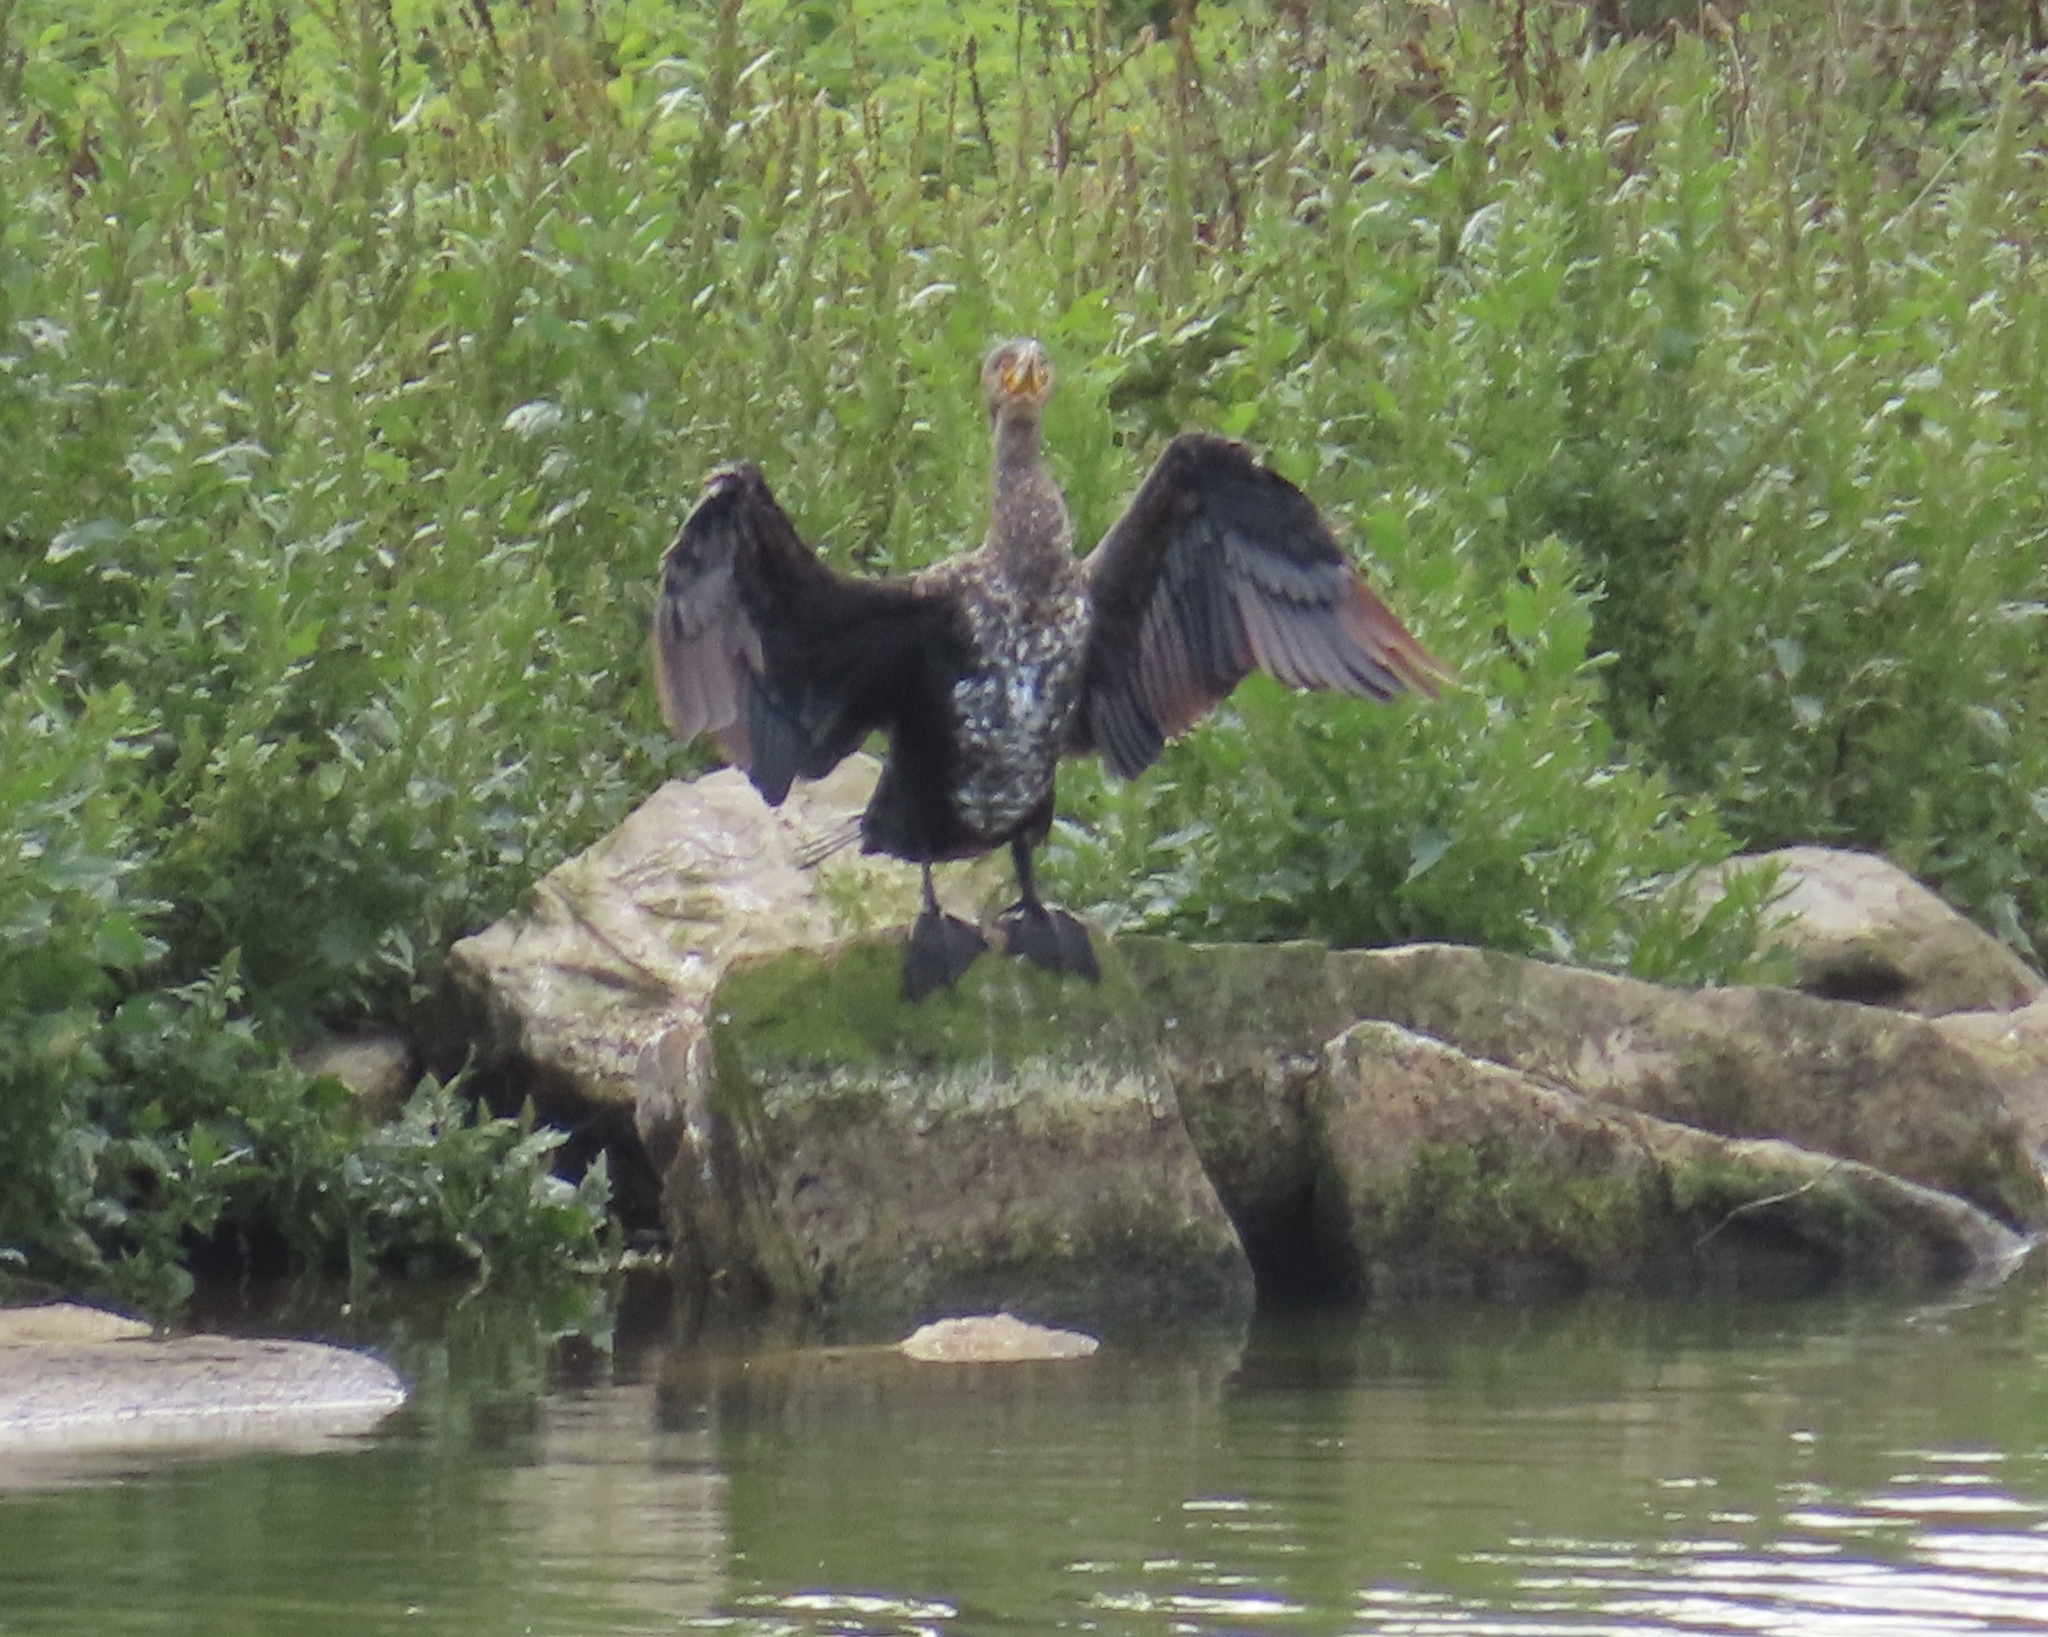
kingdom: Animalia
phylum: Chordata
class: Aves
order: Suliformes
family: Phalacrocoracidae
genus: Phalacrocorax
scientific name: Phalacrocorax carbo
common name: Great cormorant
